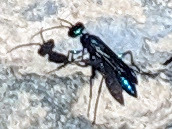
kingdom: Animalia
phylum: Arthropoda
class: Insecta
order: Hymenoptera
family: Sphecidae
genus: Chlorion
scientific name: Chlorion aerarium
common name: Steel-blue cricket hunter
